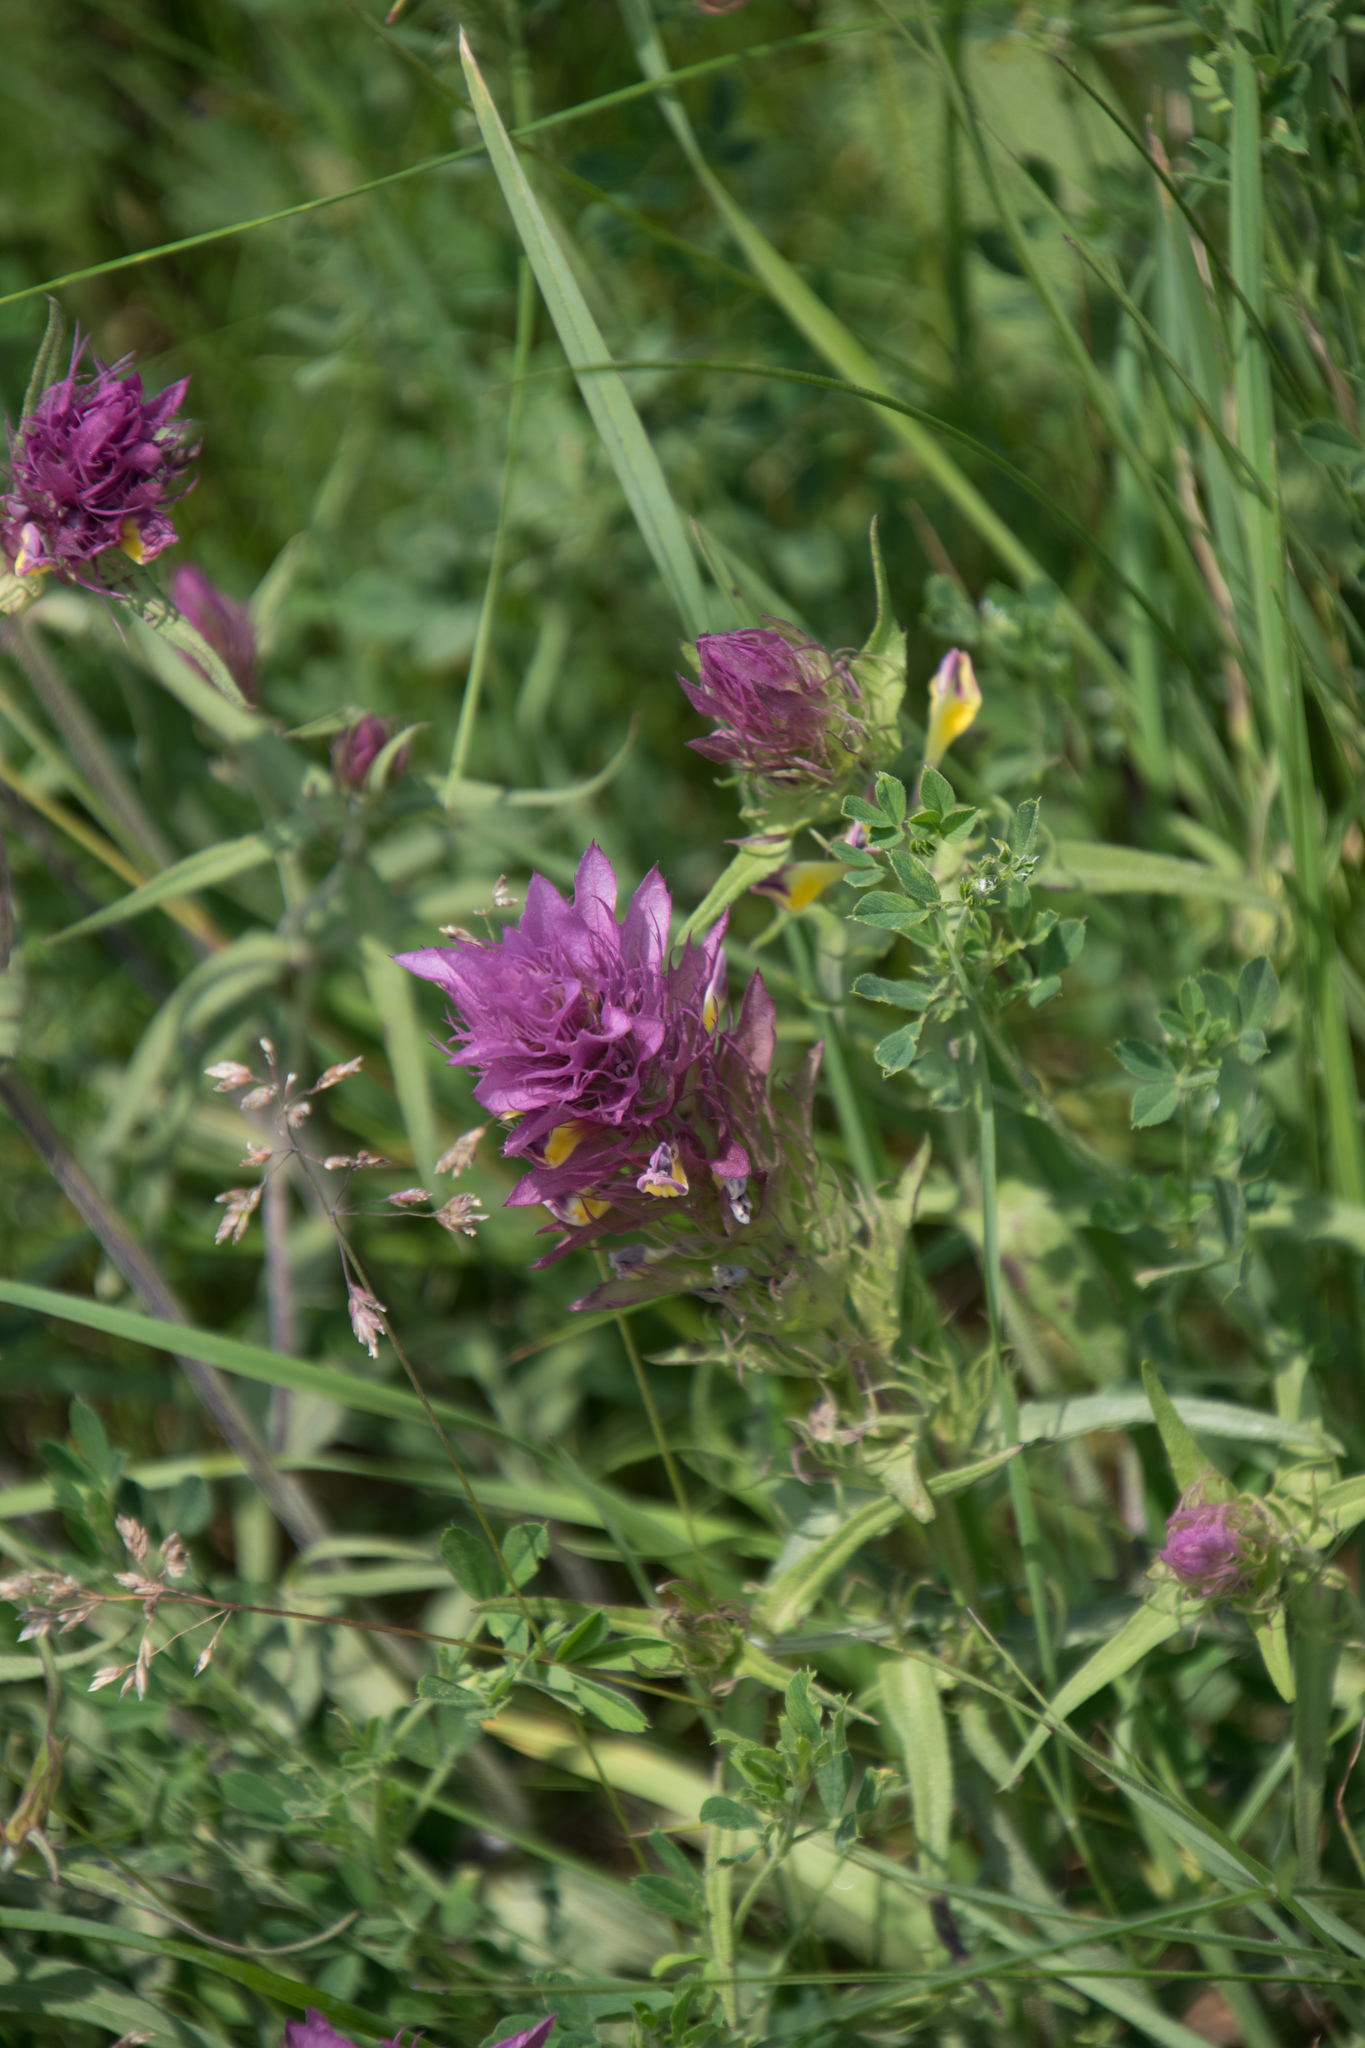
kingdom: Plantae
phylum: Tracheophyta
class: Magnoliopsida
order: Lamiales
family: Orobanchaceae
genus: Melampyrum
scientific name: Melampyrum arvense
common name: Field cow-wheat
